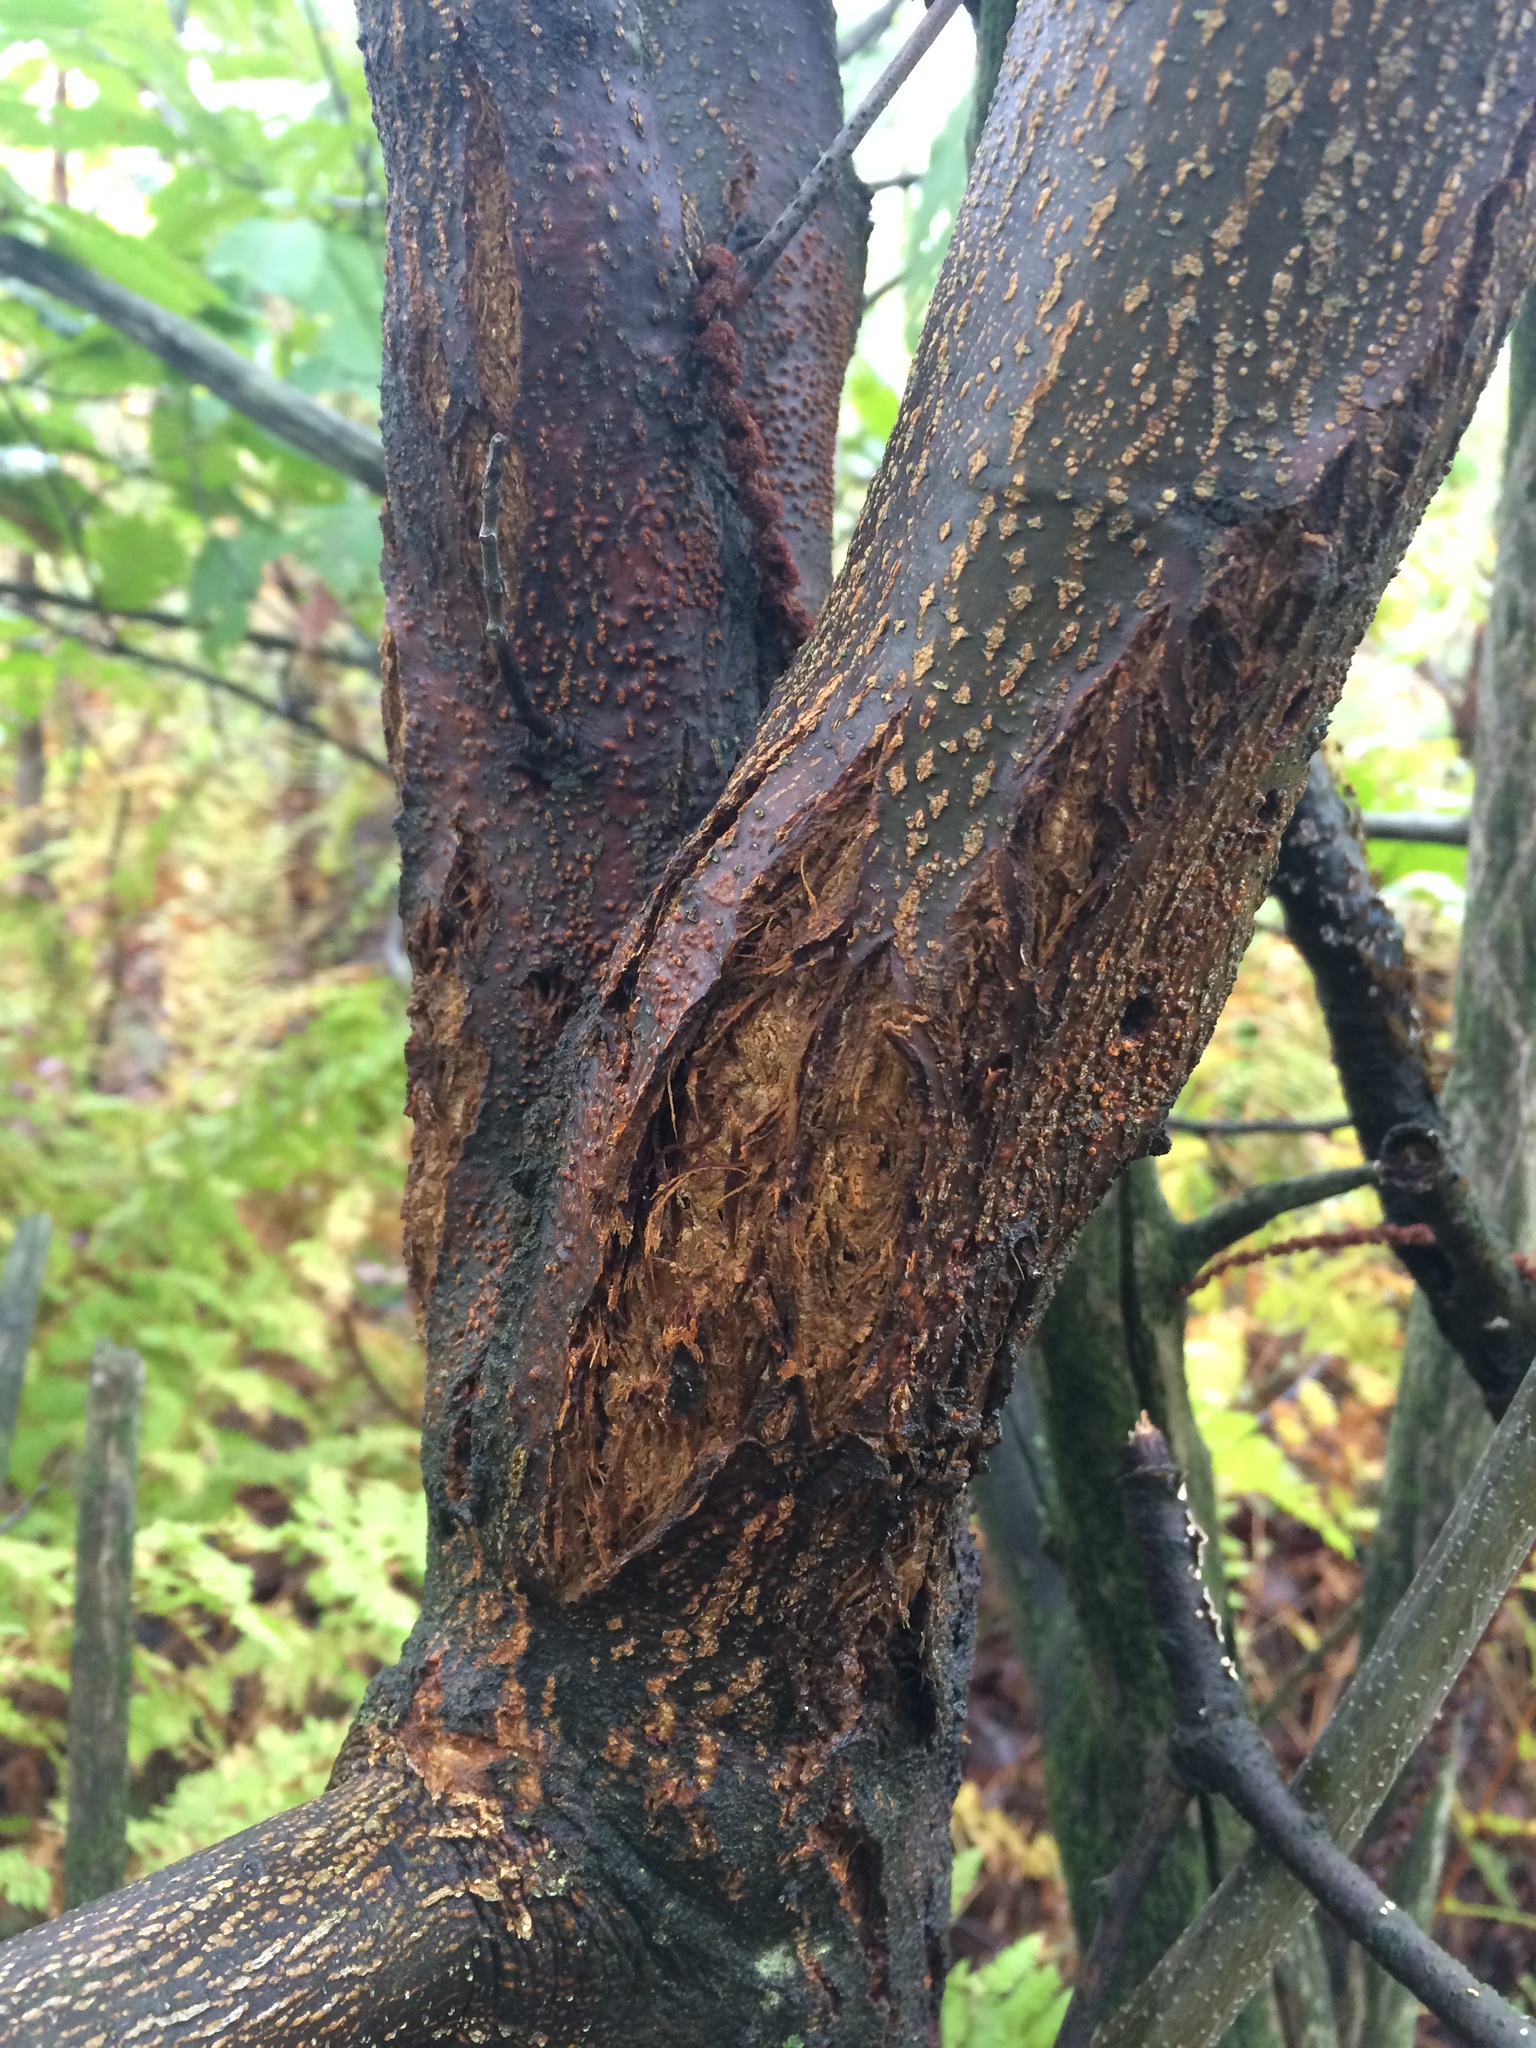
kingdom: Fungi
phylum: Ascomycota
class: Sordariomycetes
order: Diaporthales
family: Cryphonectriaceae
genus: Cryphonectria
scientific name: Cryphonectria parasitica
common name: Chestnut blight
